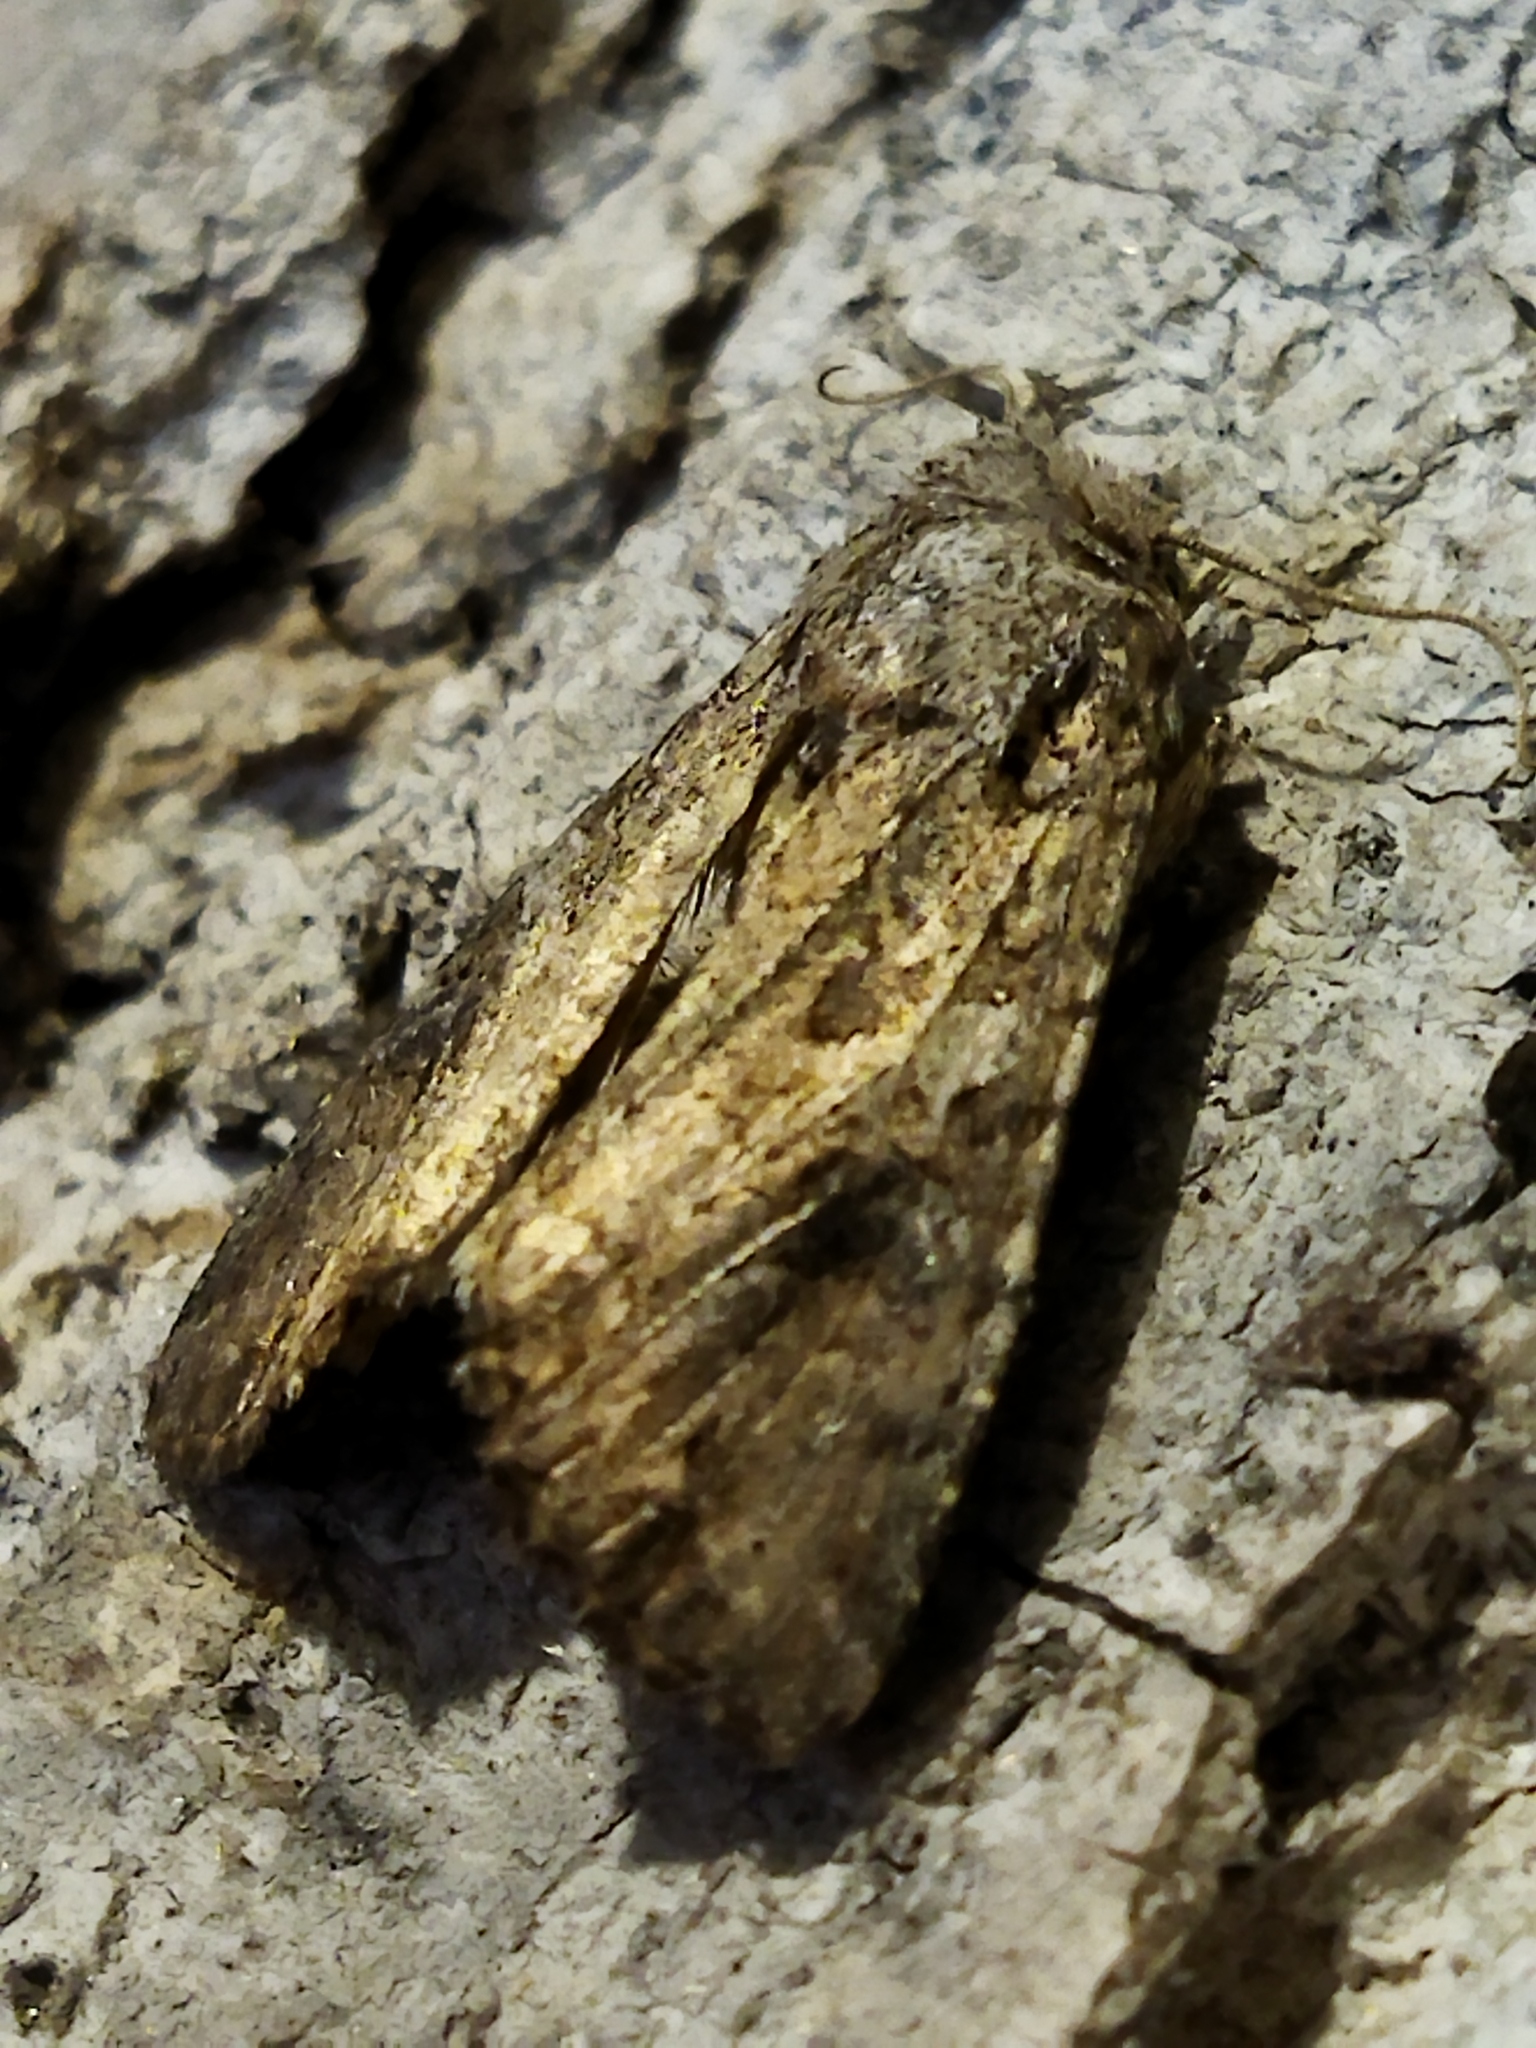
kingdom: Animalia
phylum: Arthropoda
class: Insecta
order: Lepidoptera
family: Noctuidae
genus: Anarta
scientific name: Anarta trifolii
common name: Clover cutworm moth
